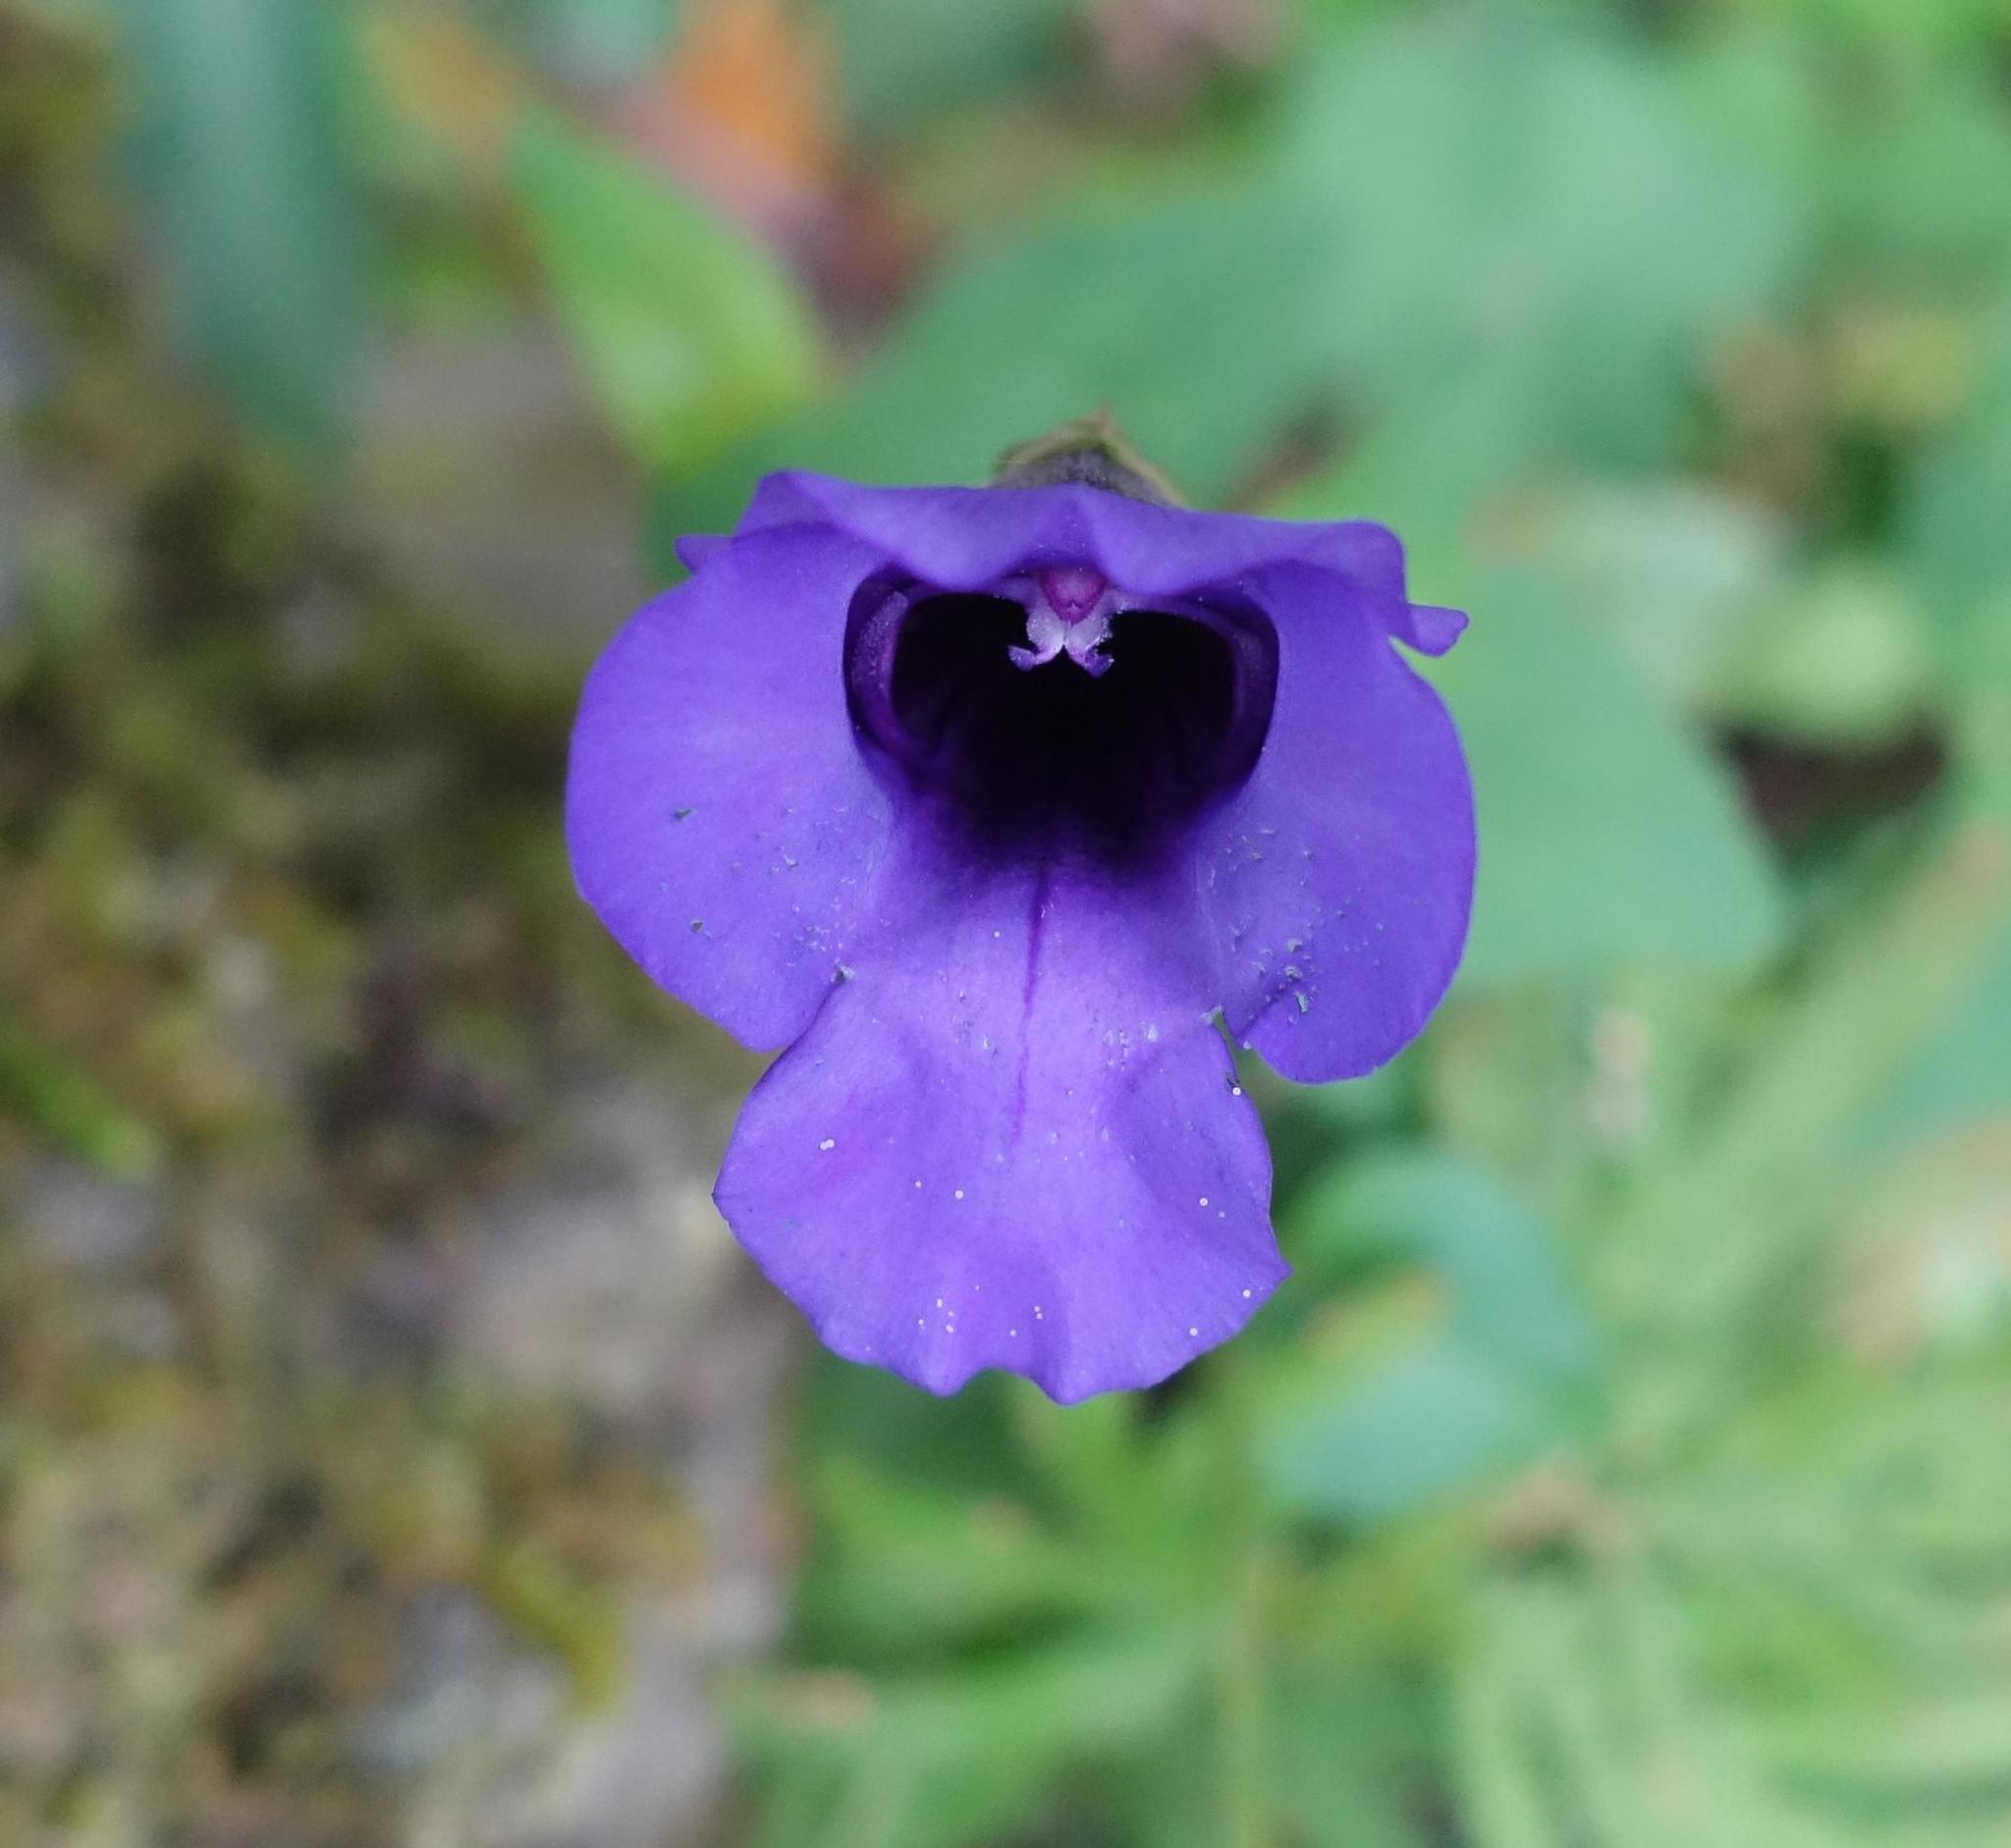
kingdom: Plantae
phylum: Tracheophyta
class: Magnoliopsida
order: Lamiales
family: Linderniaceae
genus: Torenia
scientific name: Torenia concolor
